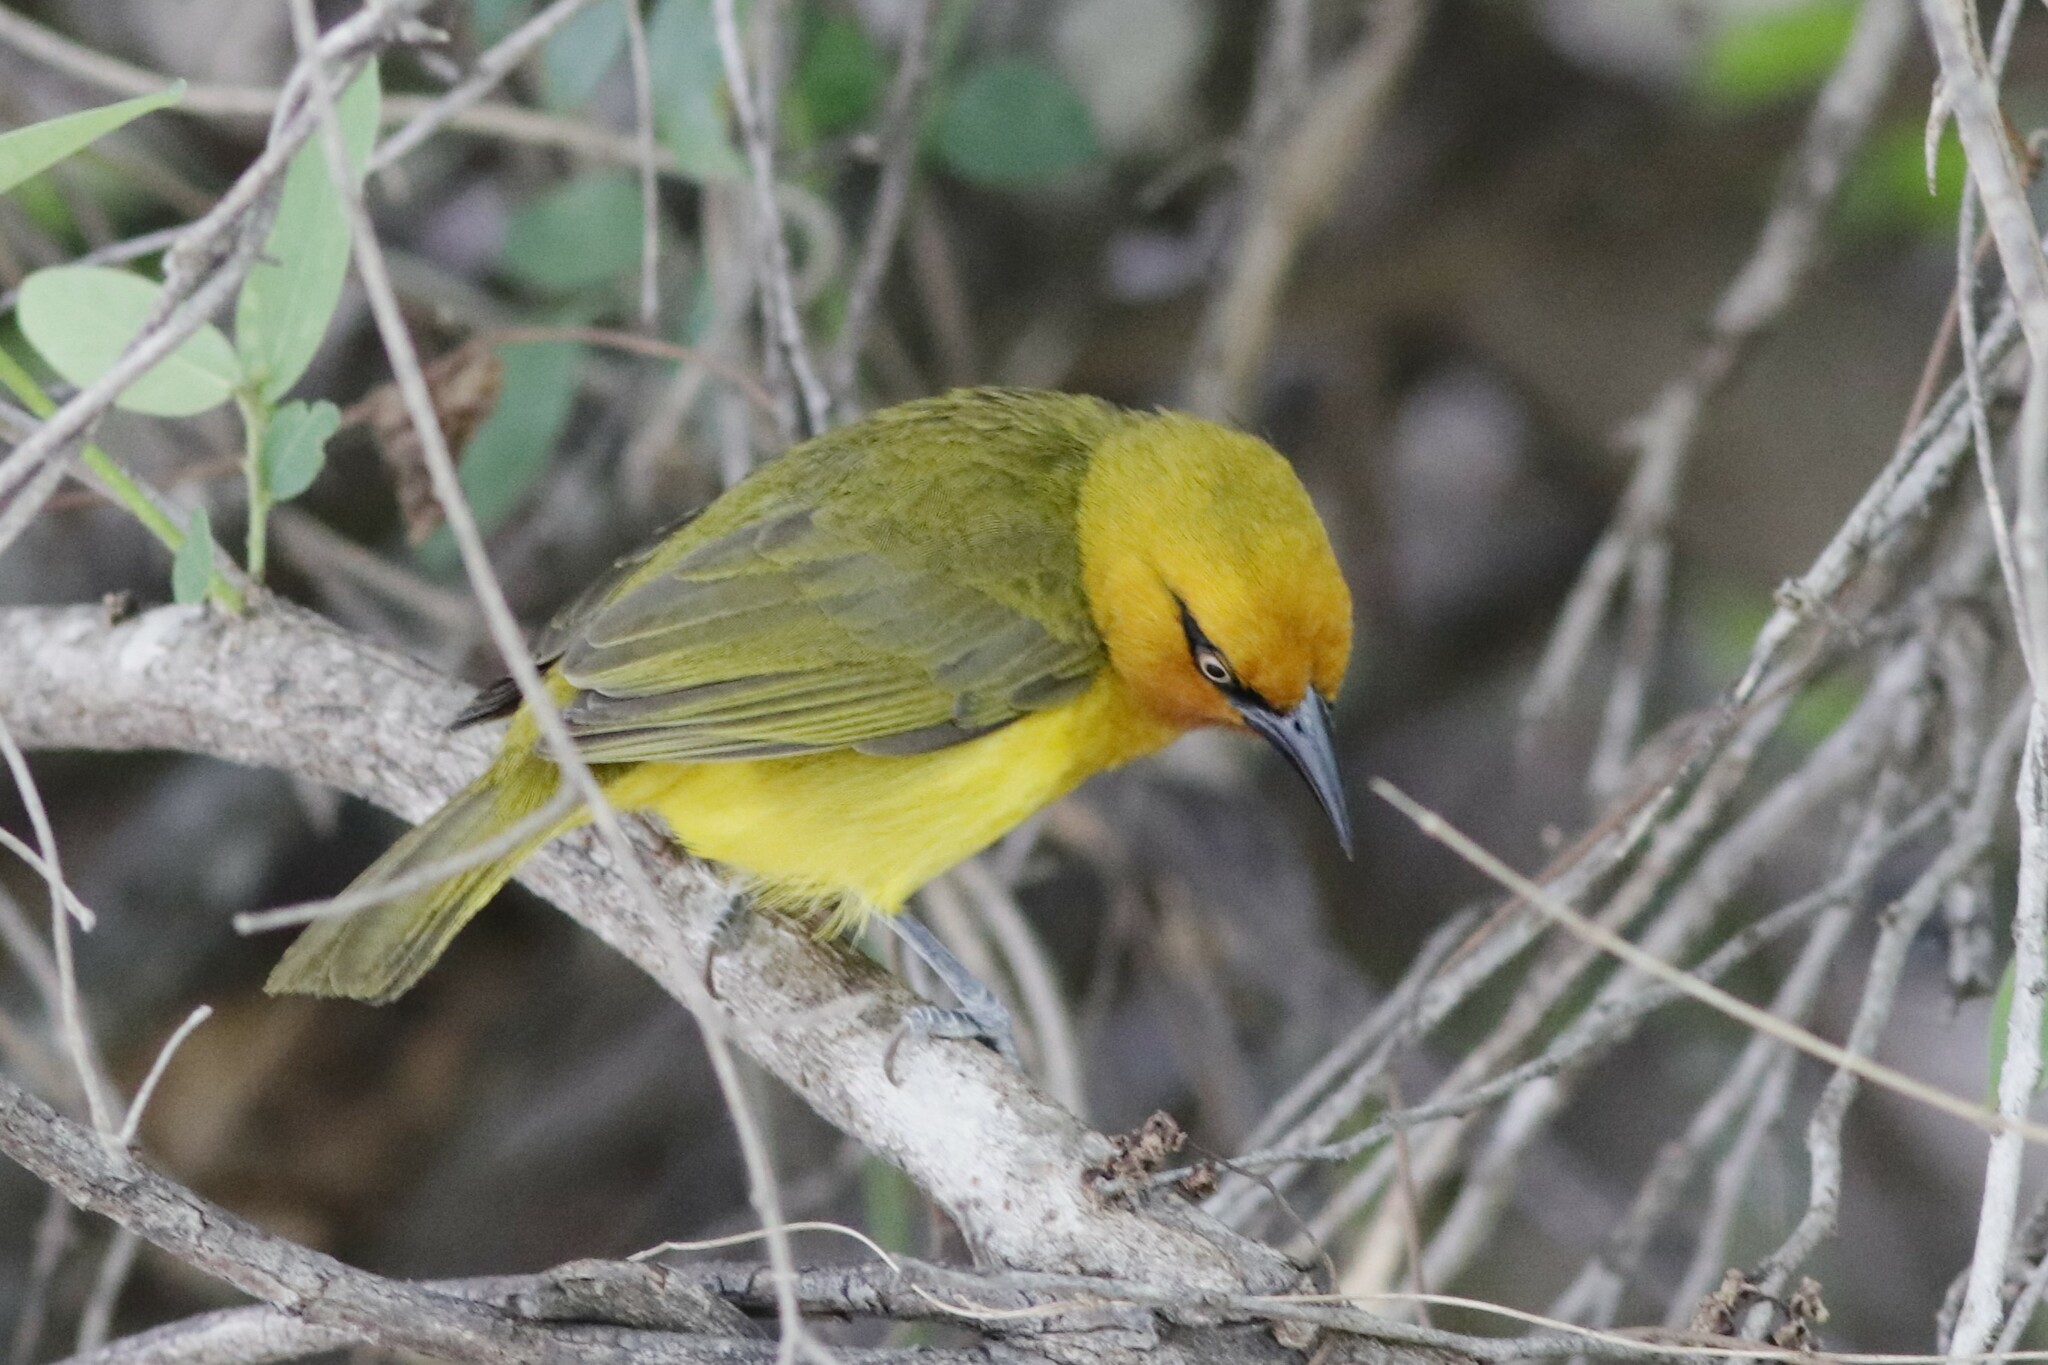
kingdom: Animalia
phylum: Chordata
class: Aves
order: Passeriformes
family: Ploceidae
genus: Ploceus
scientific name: Ploceus ocularis
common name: Spectacled weaver
